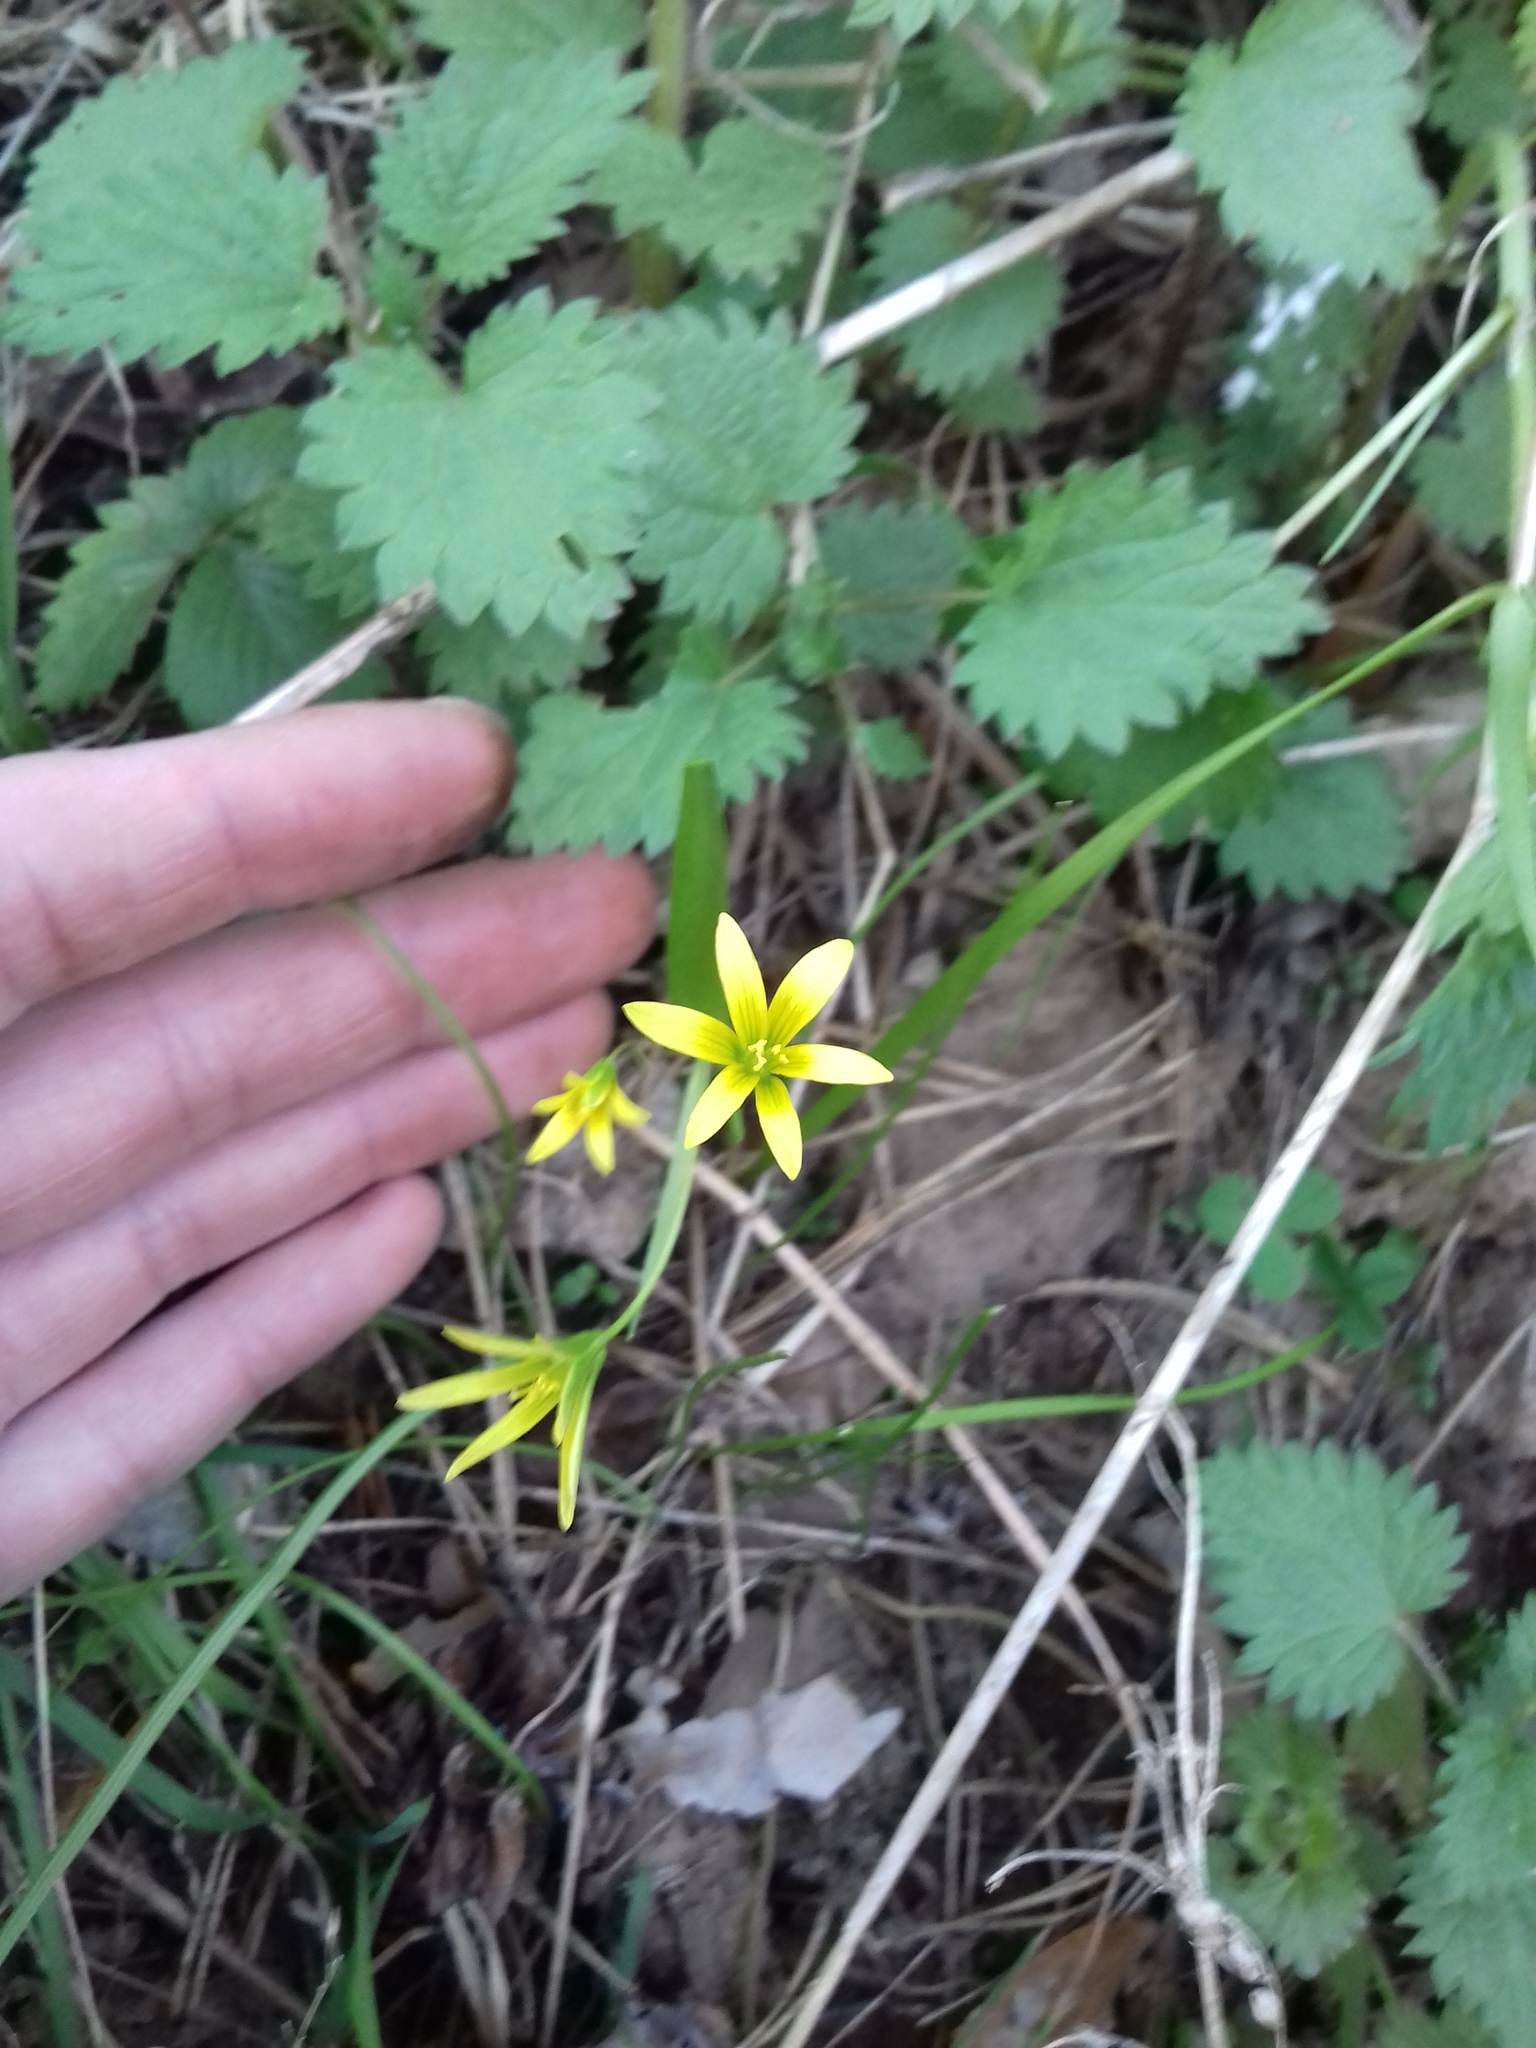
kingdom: Plantae
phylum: Tracheophyta
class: Liliopsida
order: Liliales
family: Liliaceae
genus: Gagea
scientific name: Gagea minima
